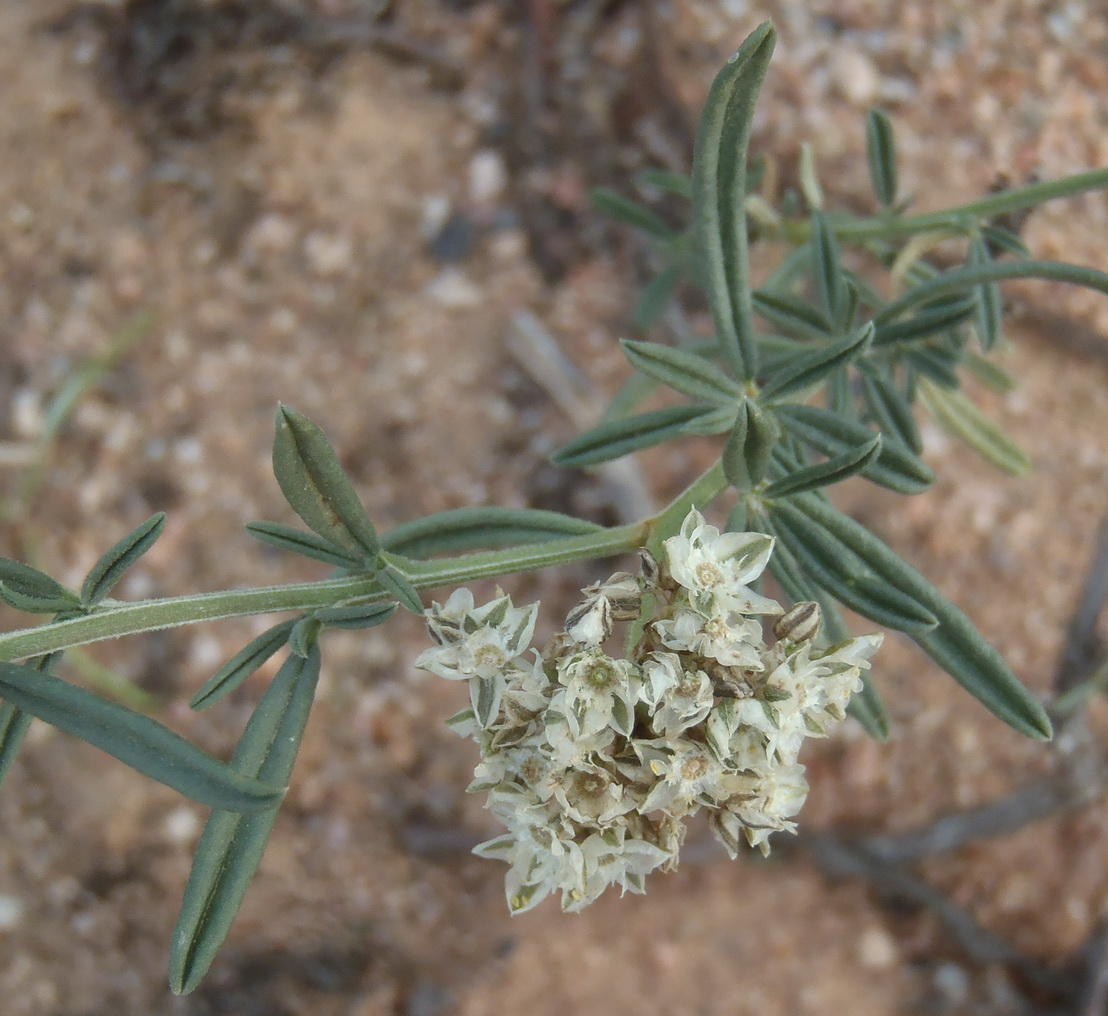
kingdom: Plantae
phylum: Tracheophyta
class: Magnoliopsida
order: Caryophyllales
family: Limeaceae
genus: Limeum
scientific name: Limeum aethiopicum
